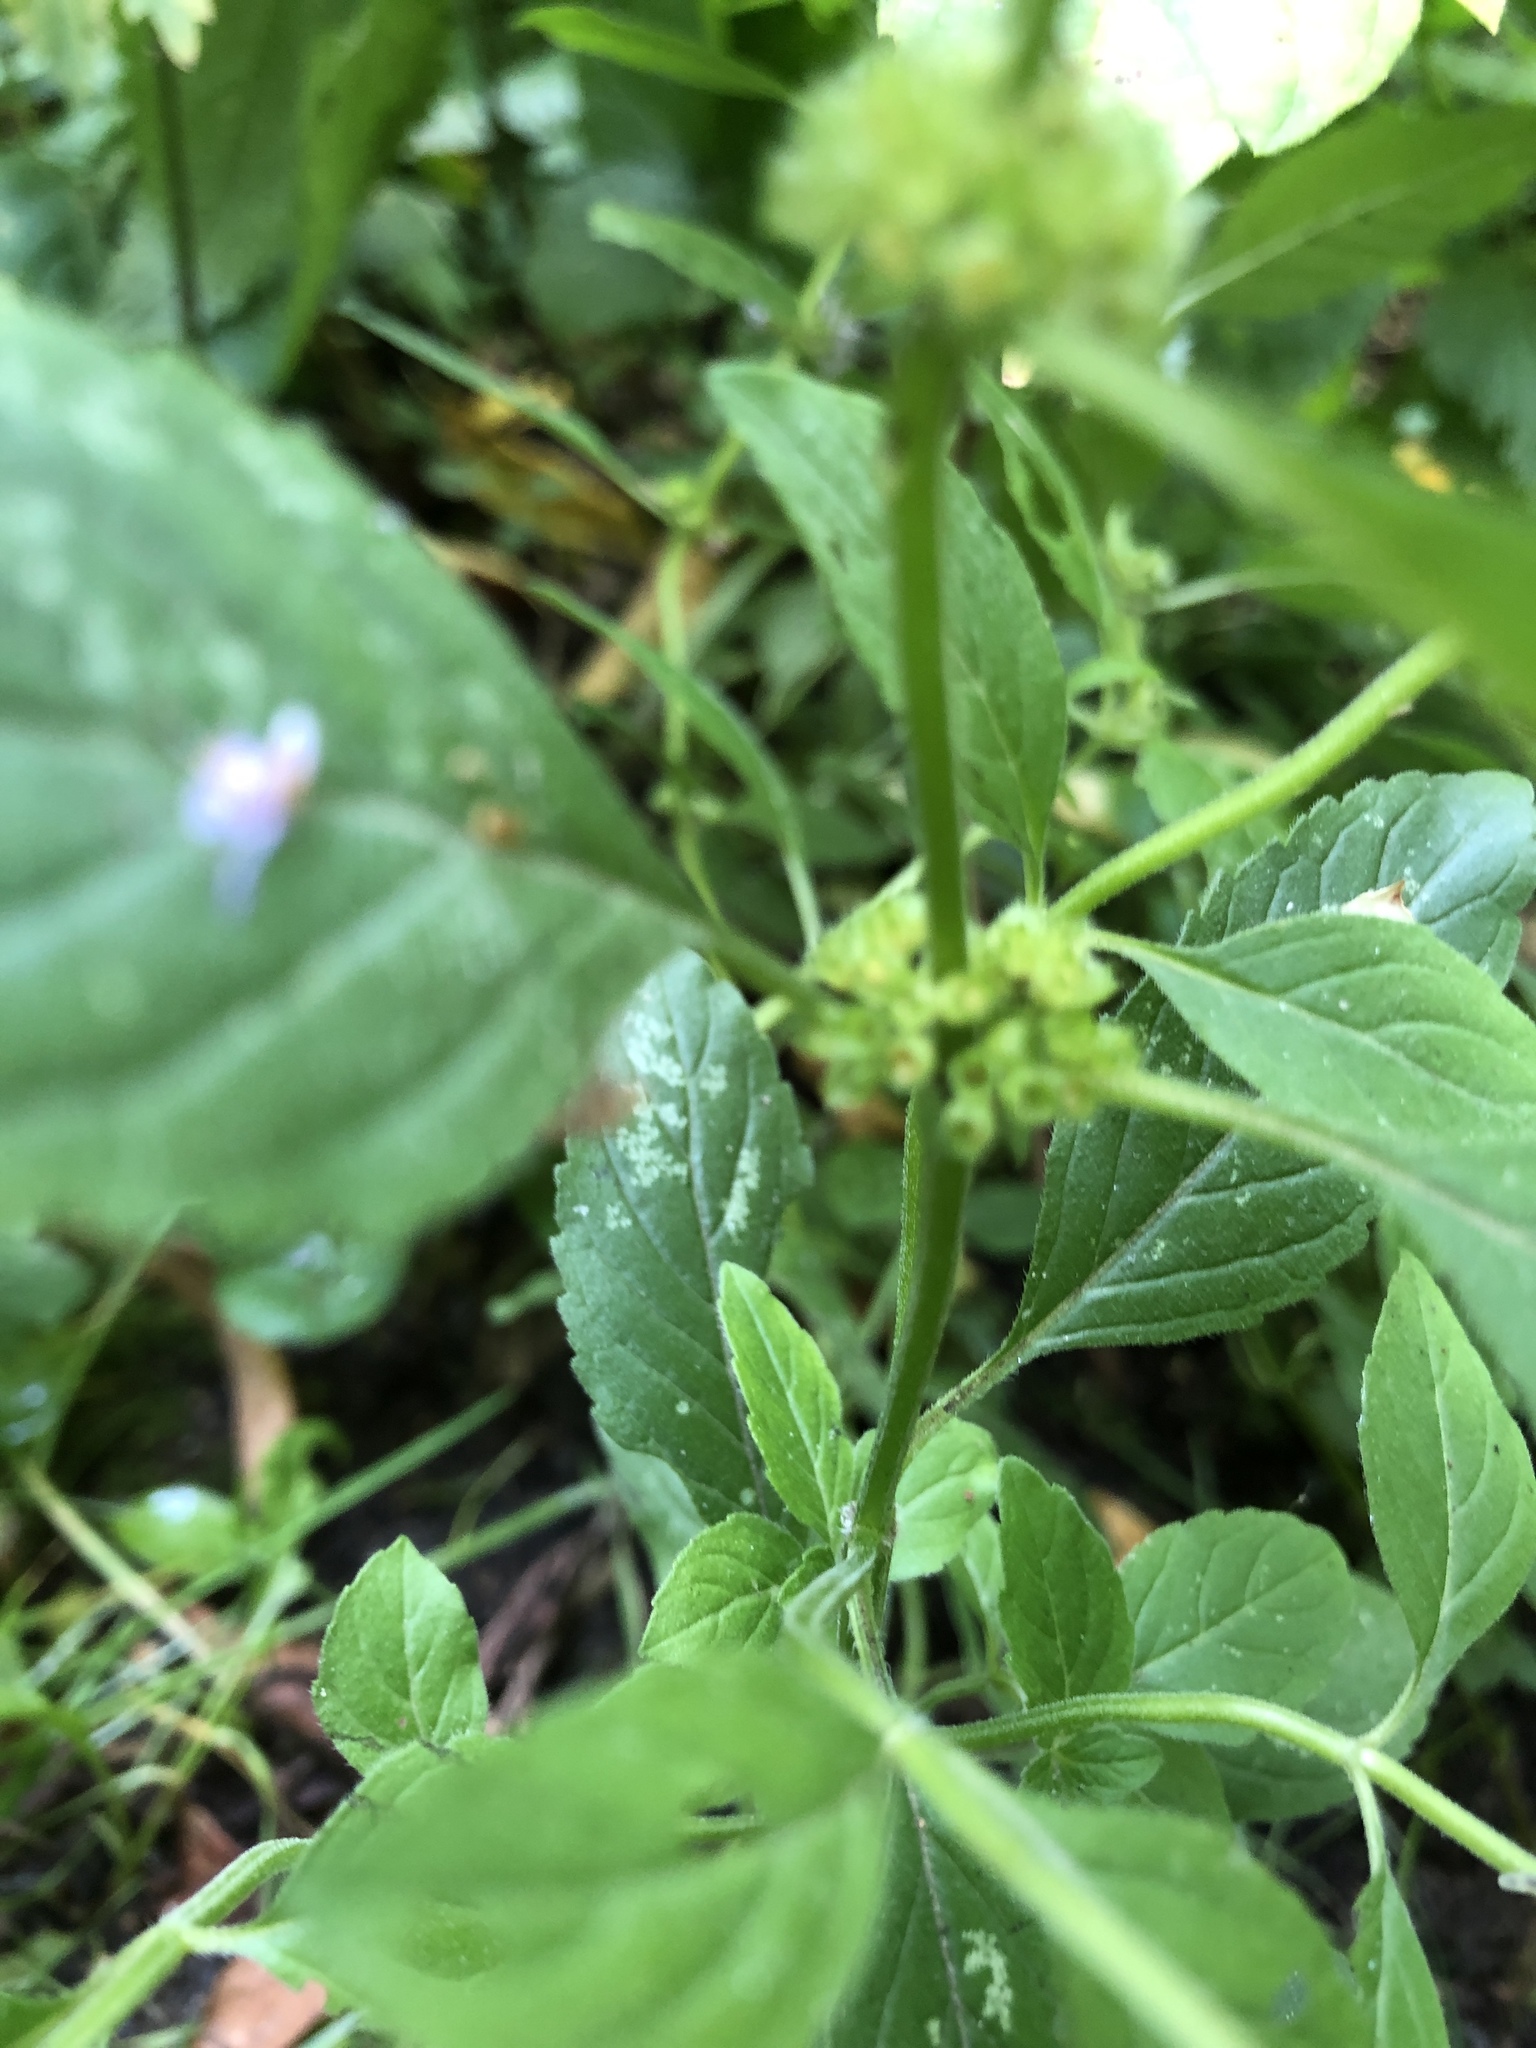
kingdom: Plantae
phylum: Tracheophyta
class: Magnoliopsida
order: Lamiales
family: Lamiaceae
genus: Mentha
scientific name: Mentha arvensis
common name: Corn mint
